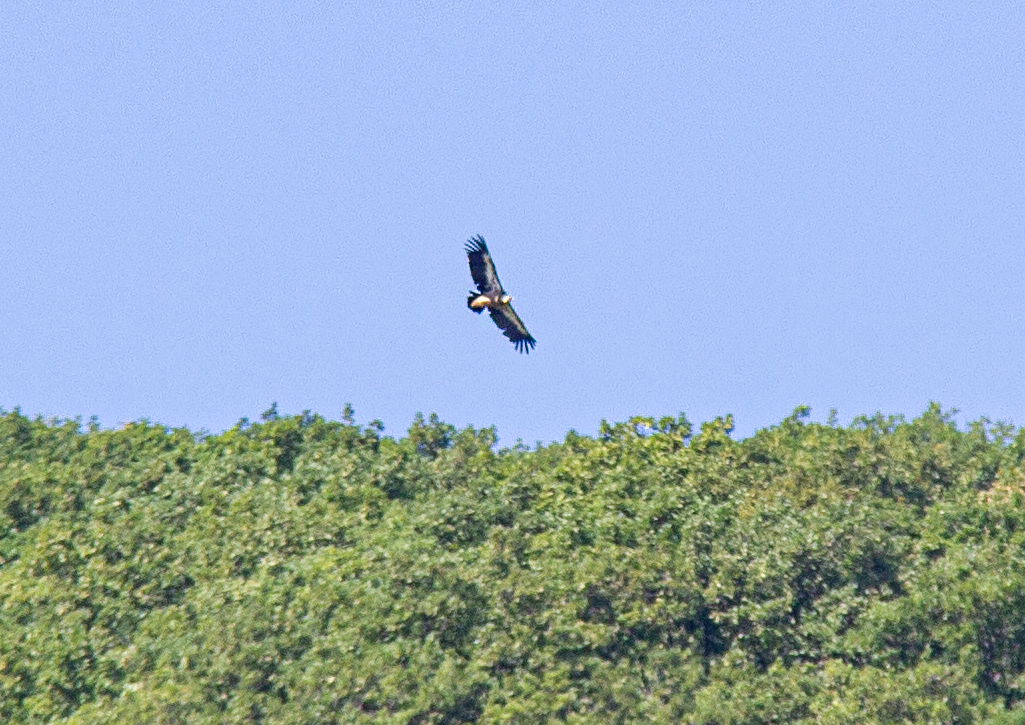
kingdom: Animalia
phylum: Chordata
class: Aves
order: Accipitriformes
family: Accipitridae
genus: Gyps
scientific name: Gyps fulvus
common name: Griffon vulture
